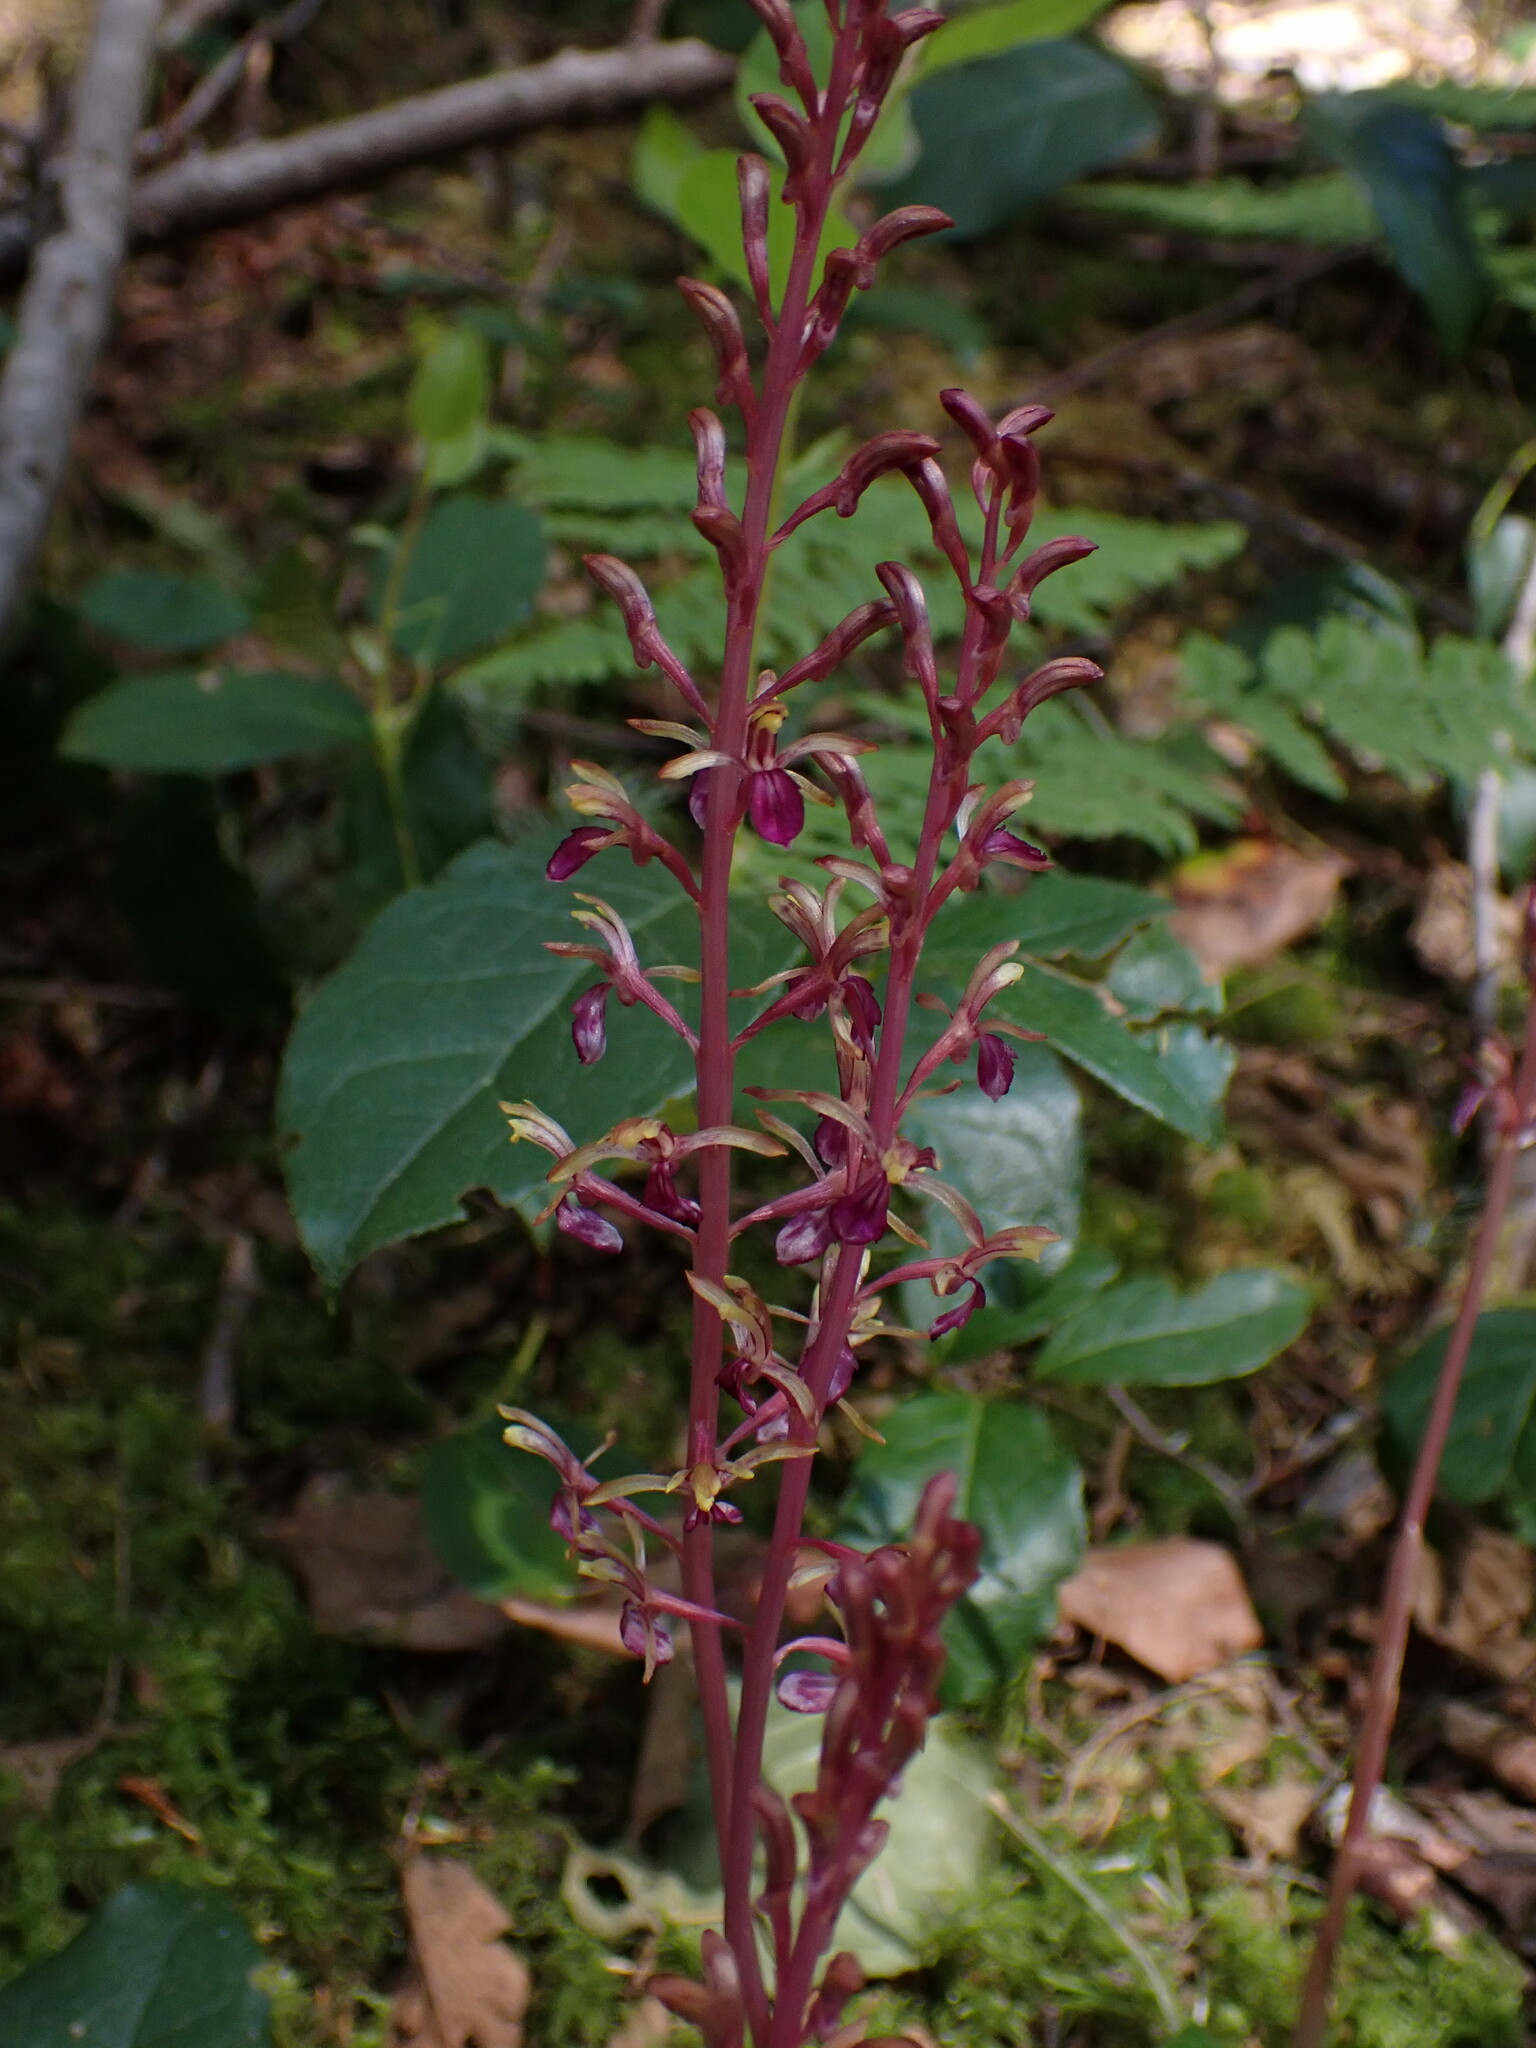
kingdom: Plantae
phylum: Tracheophyta
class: Liliopsida
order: Asparagales
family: Orchidaceae
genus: Corallorhiza
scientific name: Corallorhiza mertensiana
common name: Pacific coralroot
